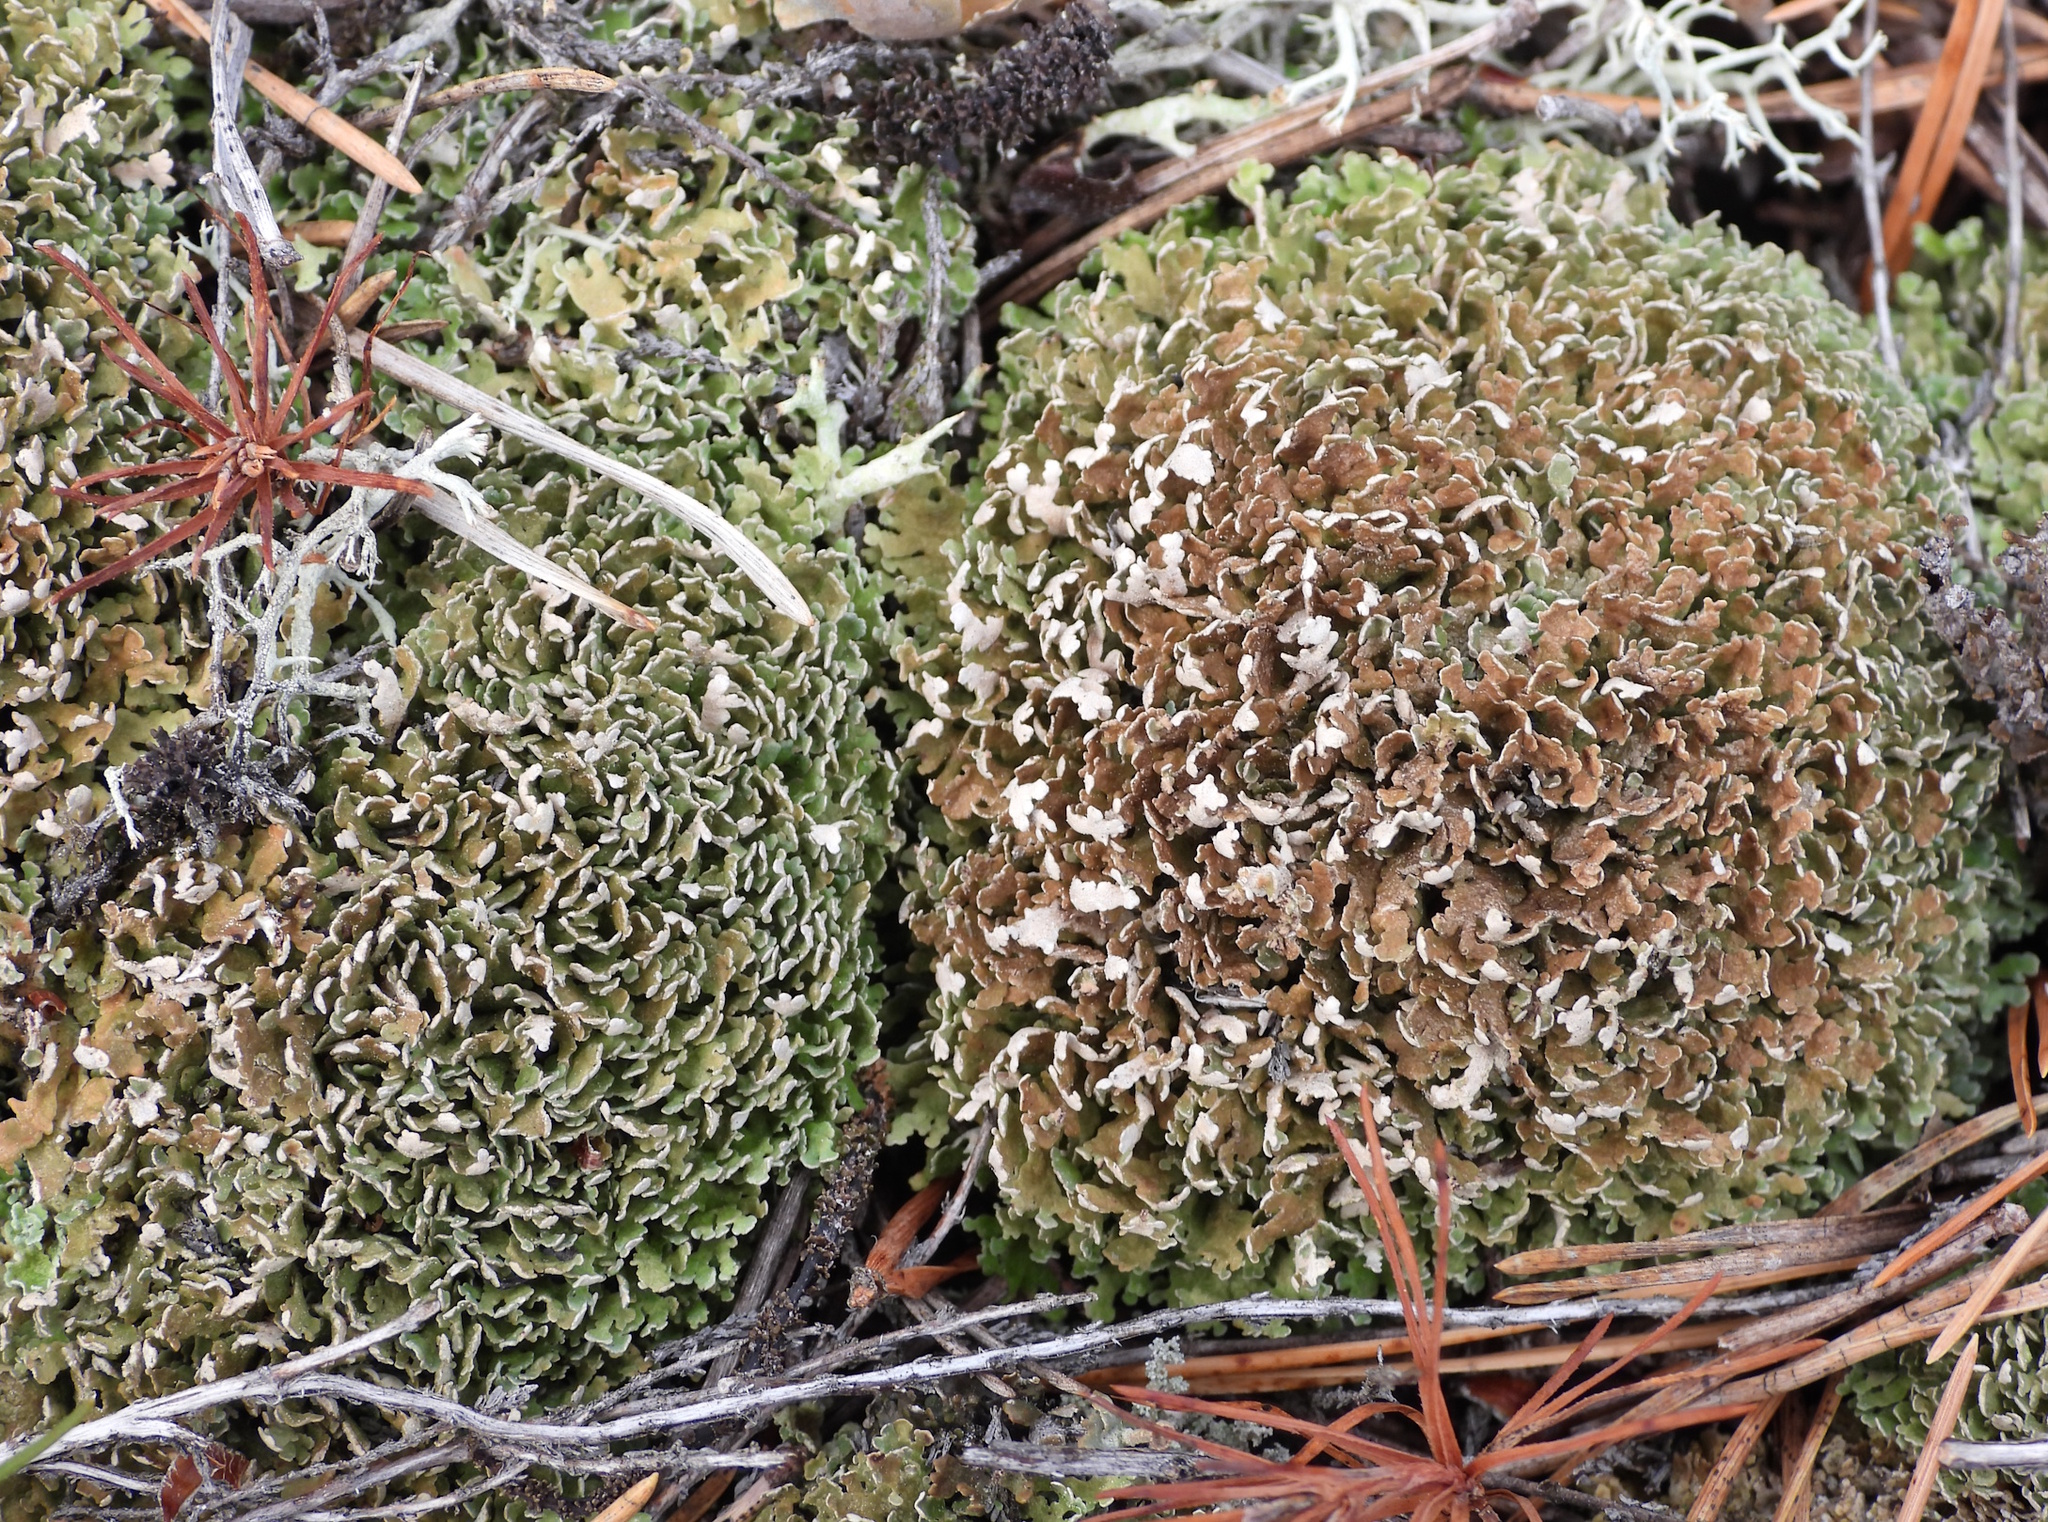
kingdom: Fungi
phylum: Ascomycota
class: Lecanoromycetes
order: Lecanorales
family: Cladoniaceae
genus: Cladonia
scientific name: Cladonia strepsilis
